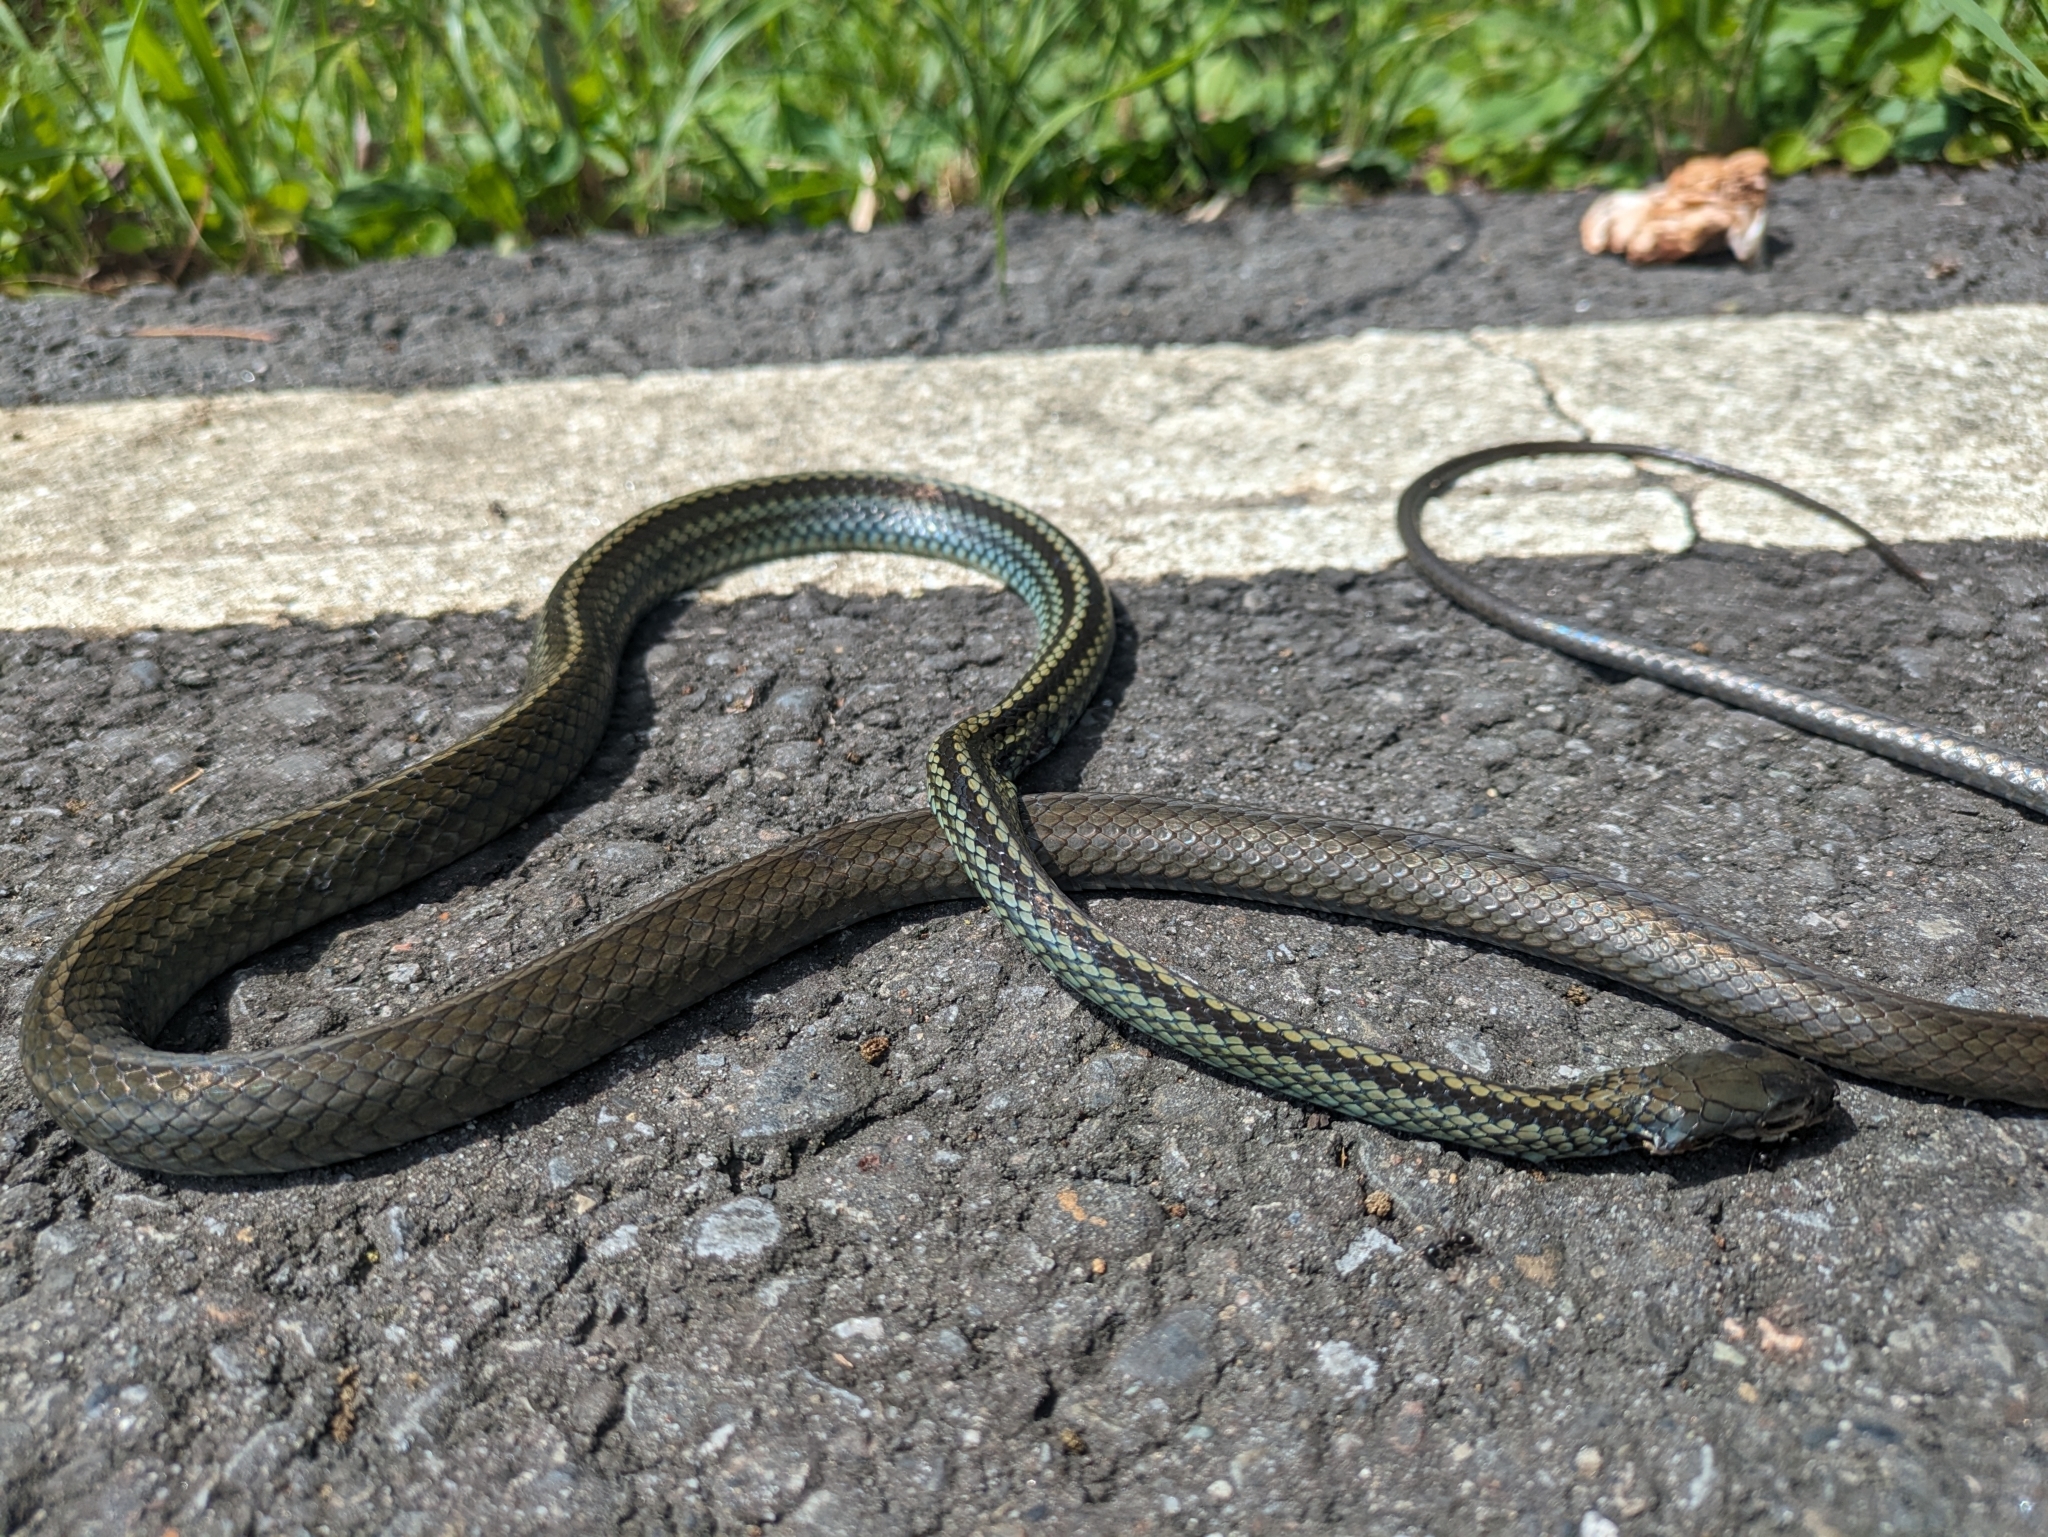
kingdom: Animalia
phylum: Chordata
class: Squamata
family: Colubridae
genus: Ptyas
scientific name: Ptyas dhumnades
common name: Black-striped rat snake
